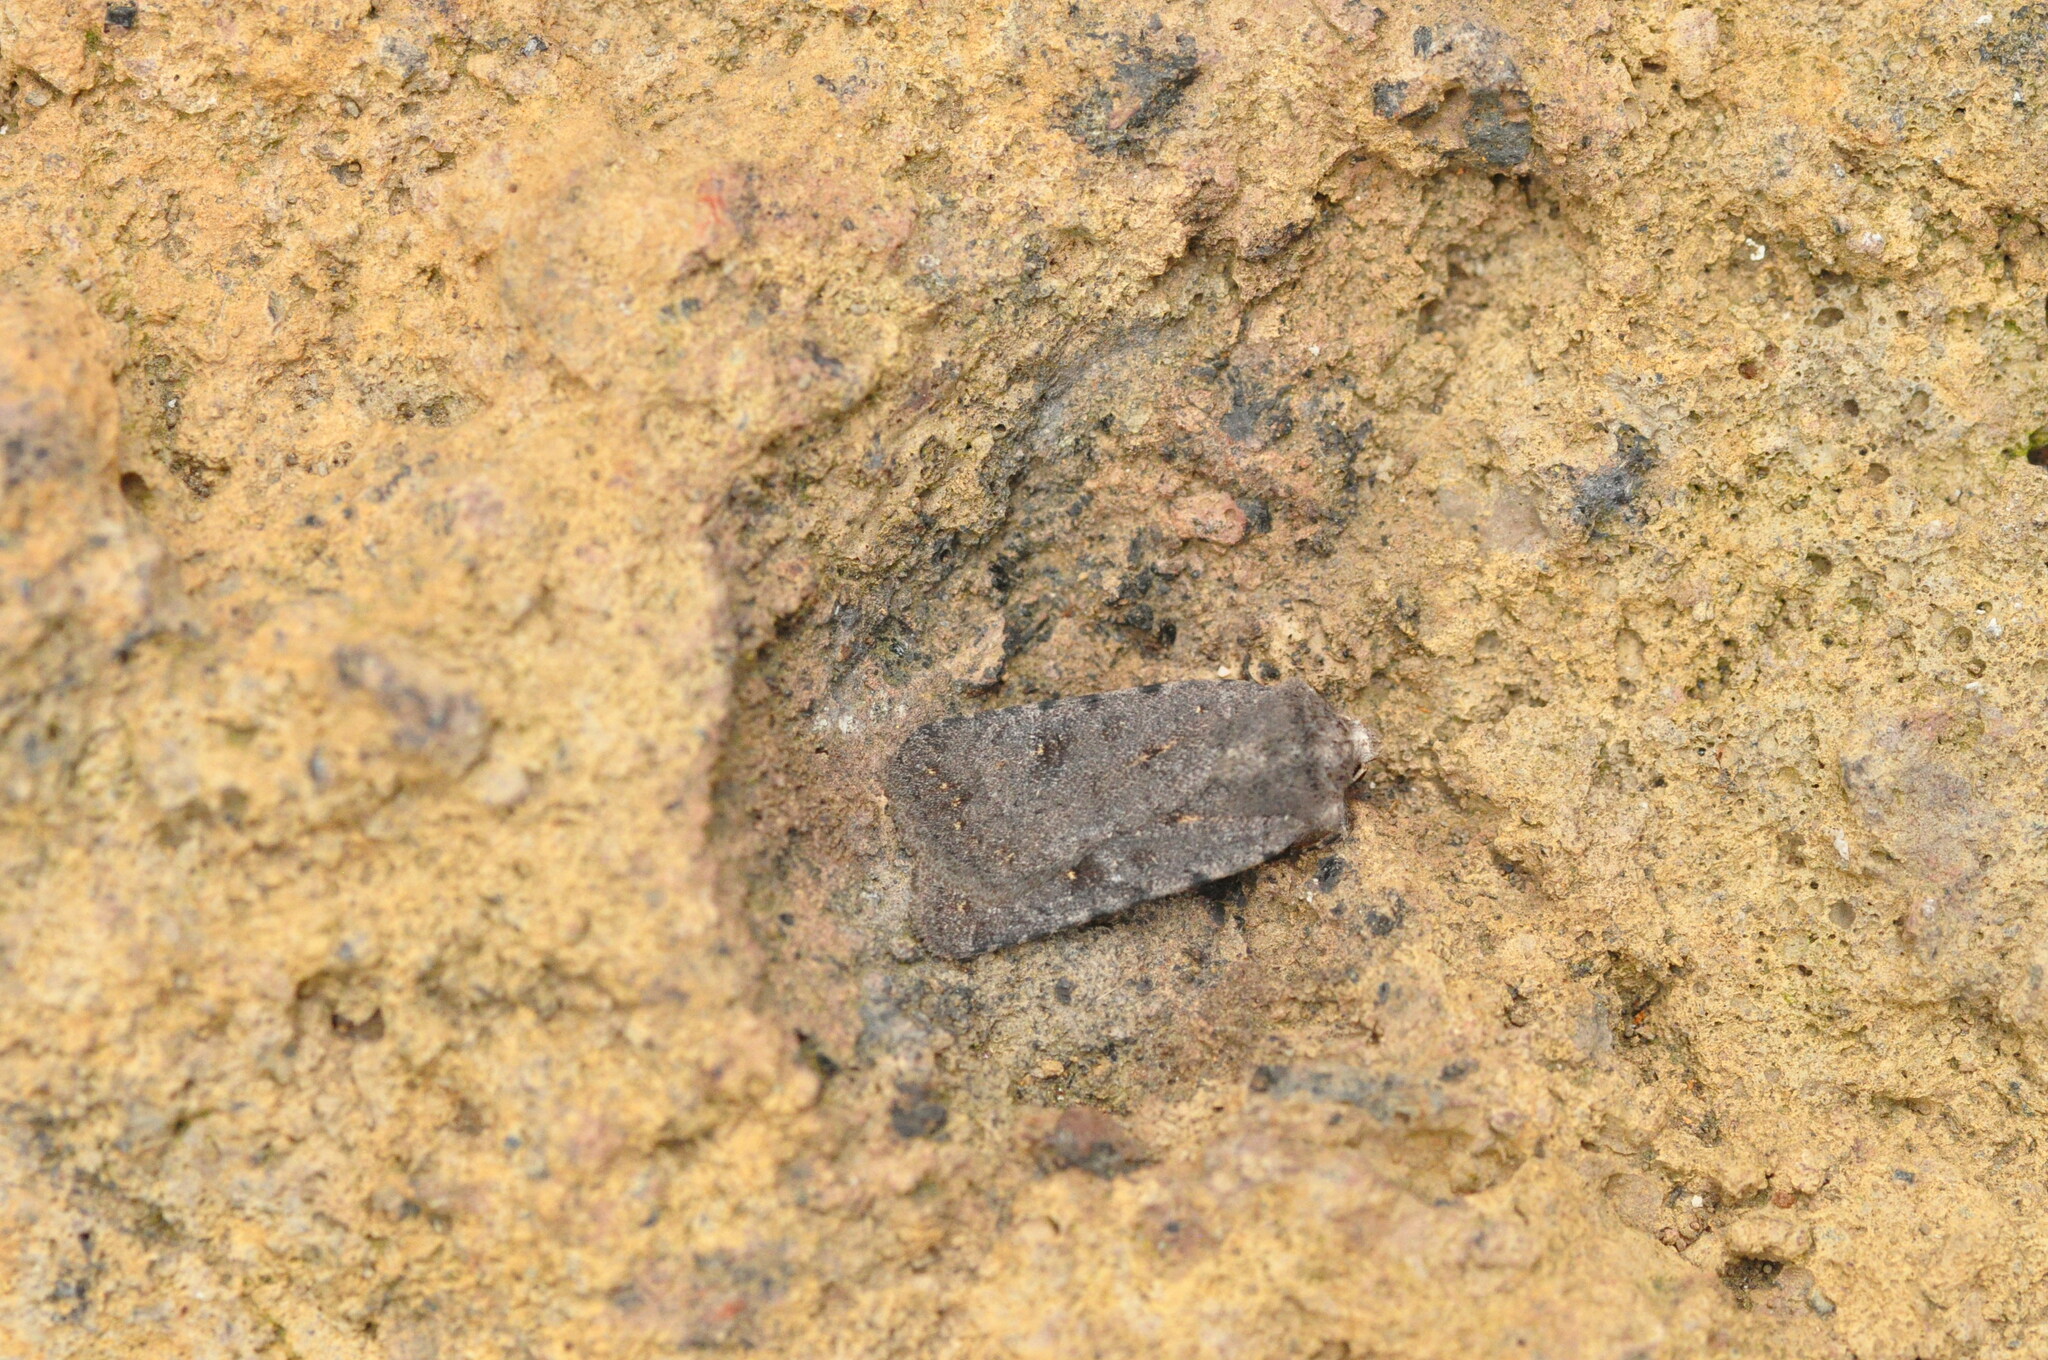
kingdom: Animalia
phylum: Arthropoda
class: Insecta
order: Lepidoptera
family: Noctuidae
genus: Caradrina
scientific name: Caradrina rebeli
